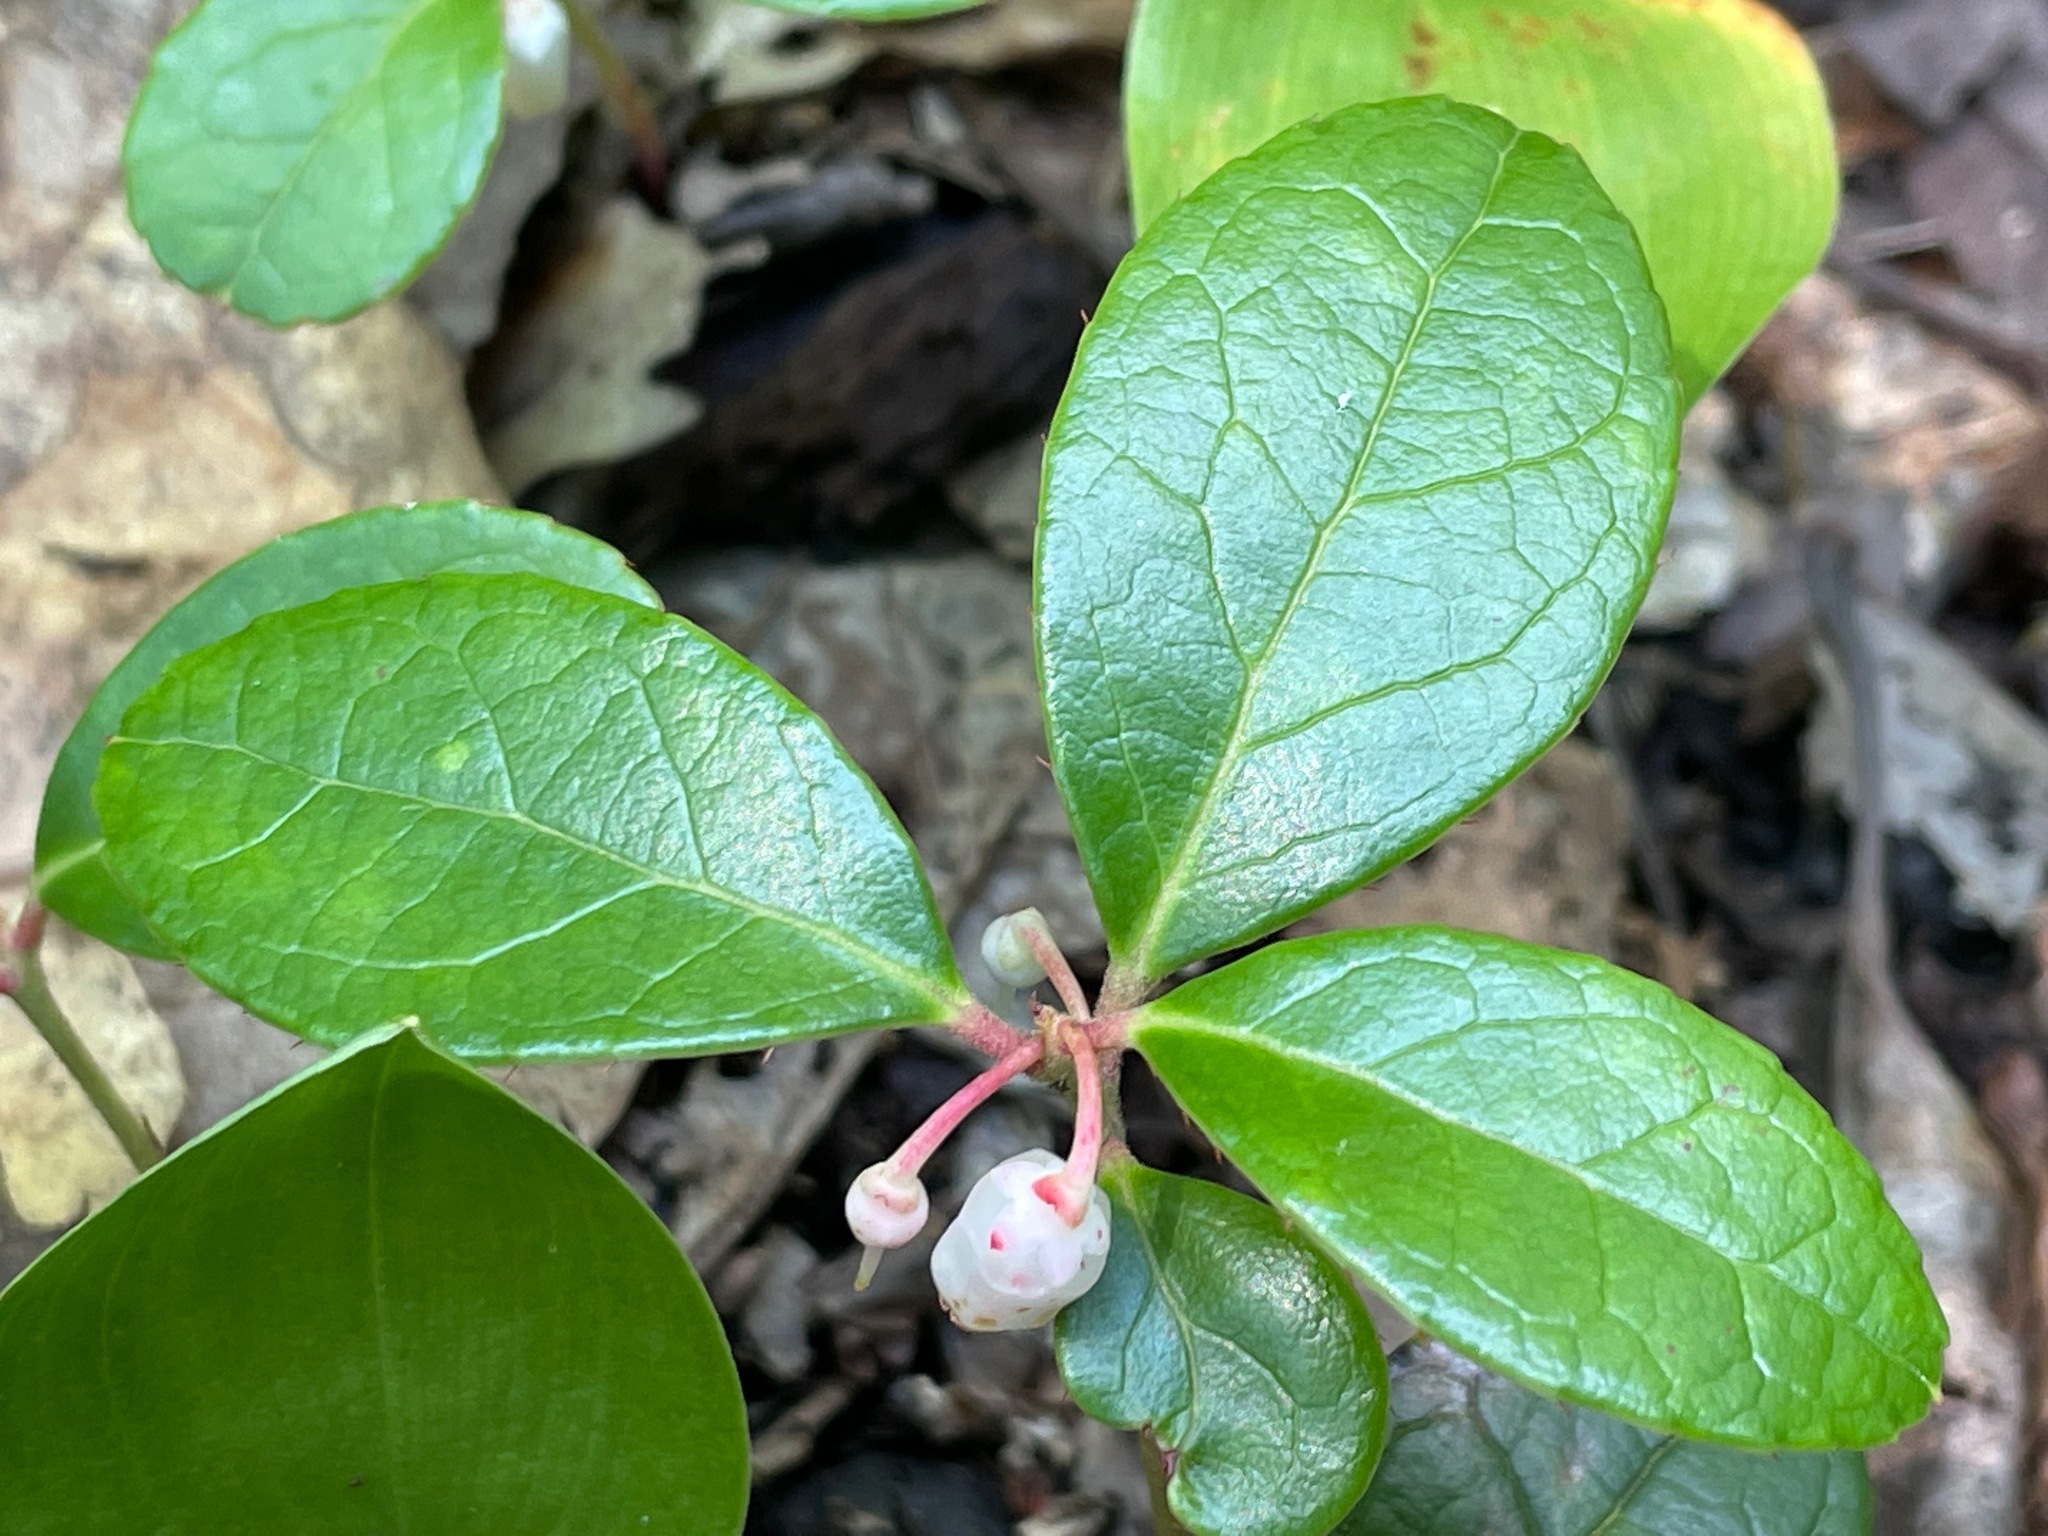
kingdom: Plantae
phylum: Tracheophyta
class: Magnoliopsida
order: Ericales
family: Ericaceae
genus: Gaultheria
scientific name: Gaultheria procumbens
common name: Checkerberry
